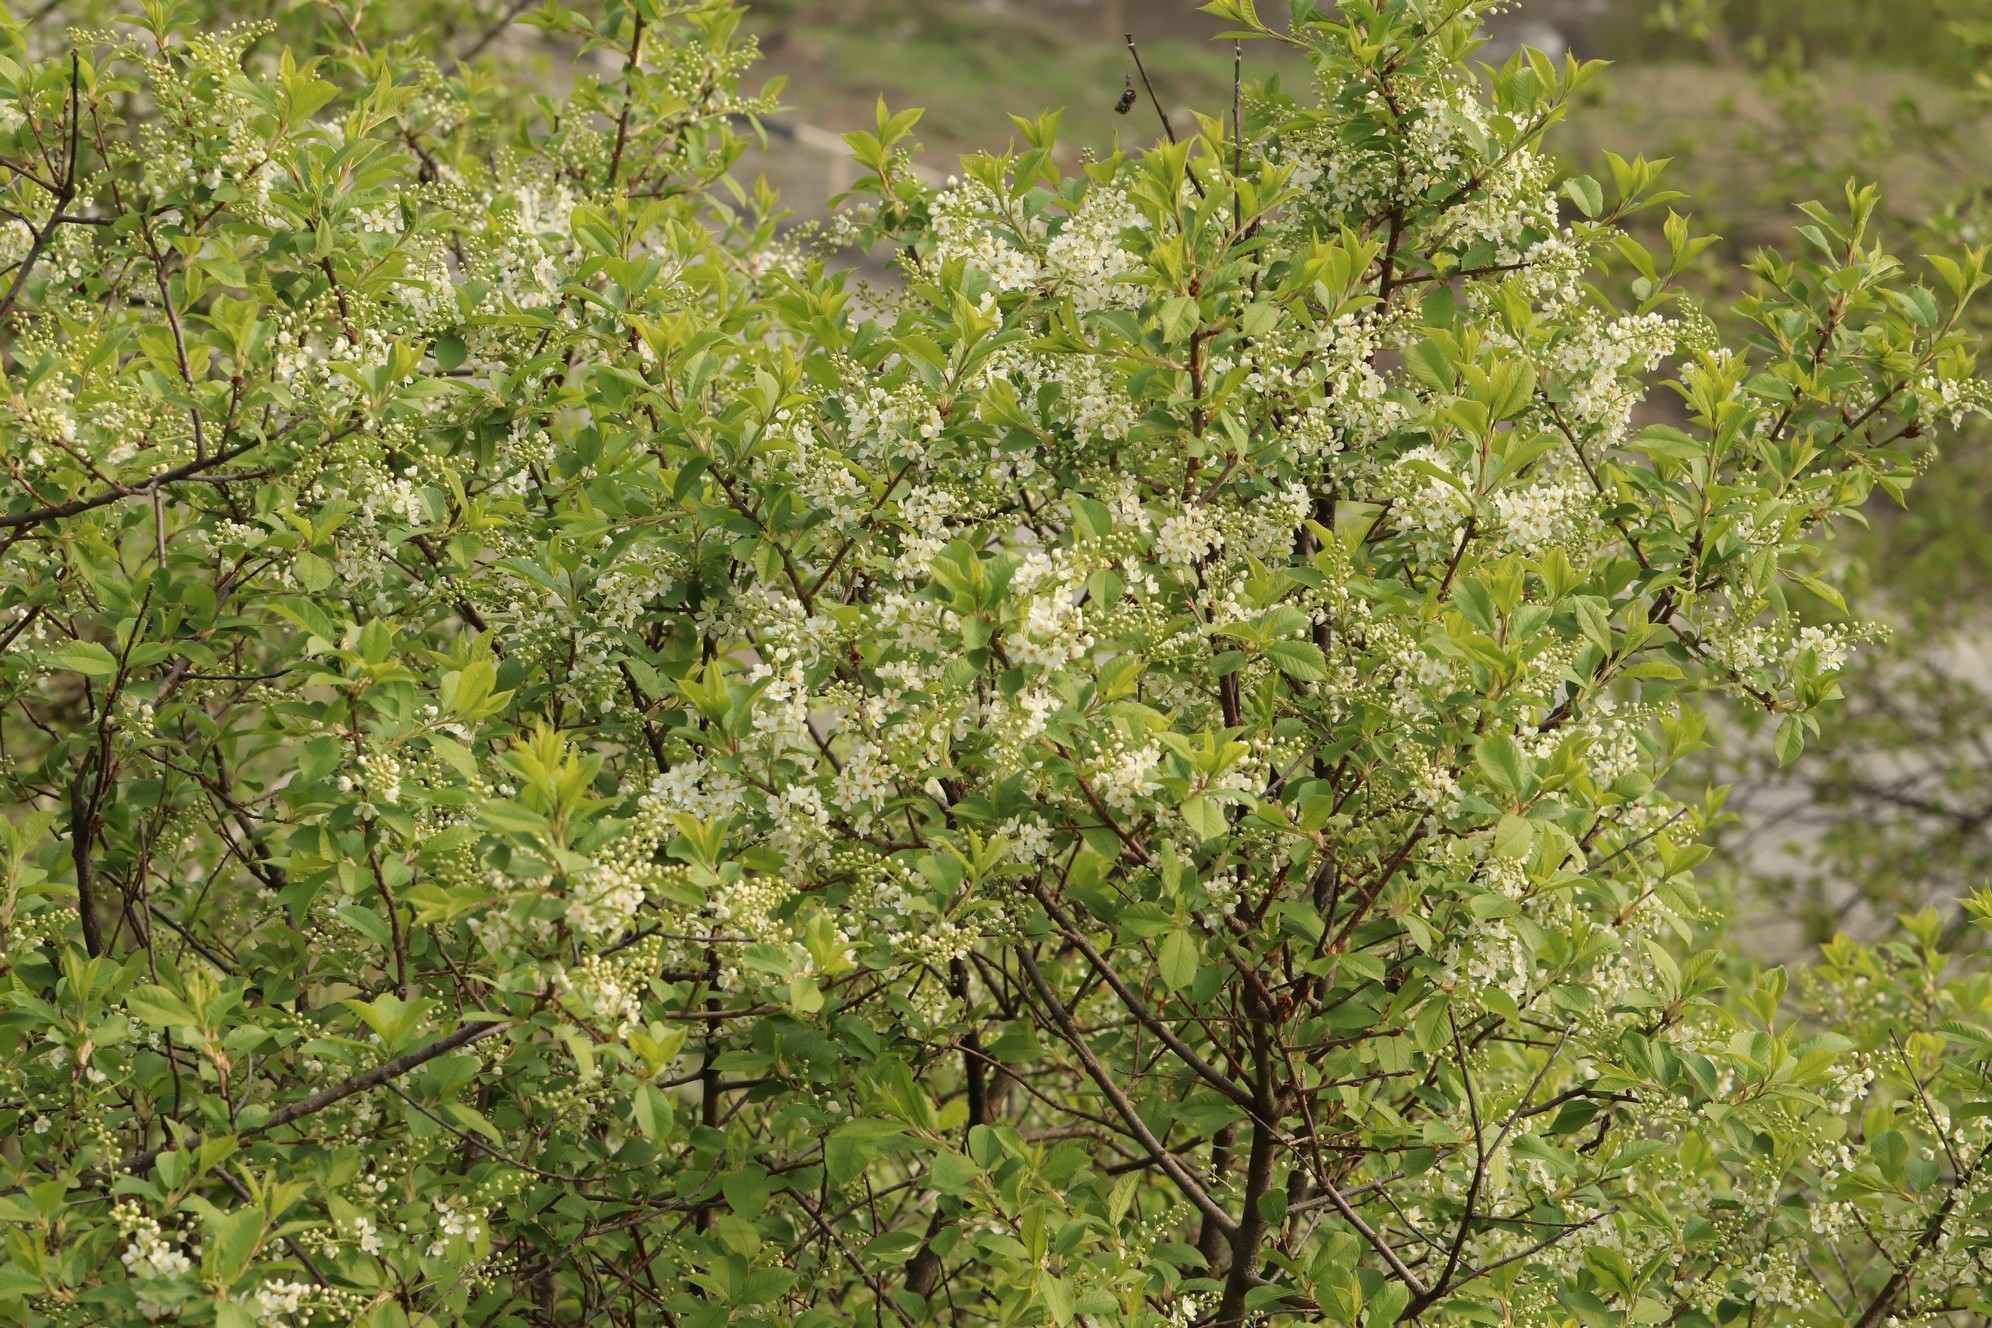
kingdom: Plantae
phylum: Tracheophyta
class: Magnoliopsida
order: Rosales
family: Rosaceae
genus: Prunus
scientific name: Prunus padus
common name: Bird cherry
